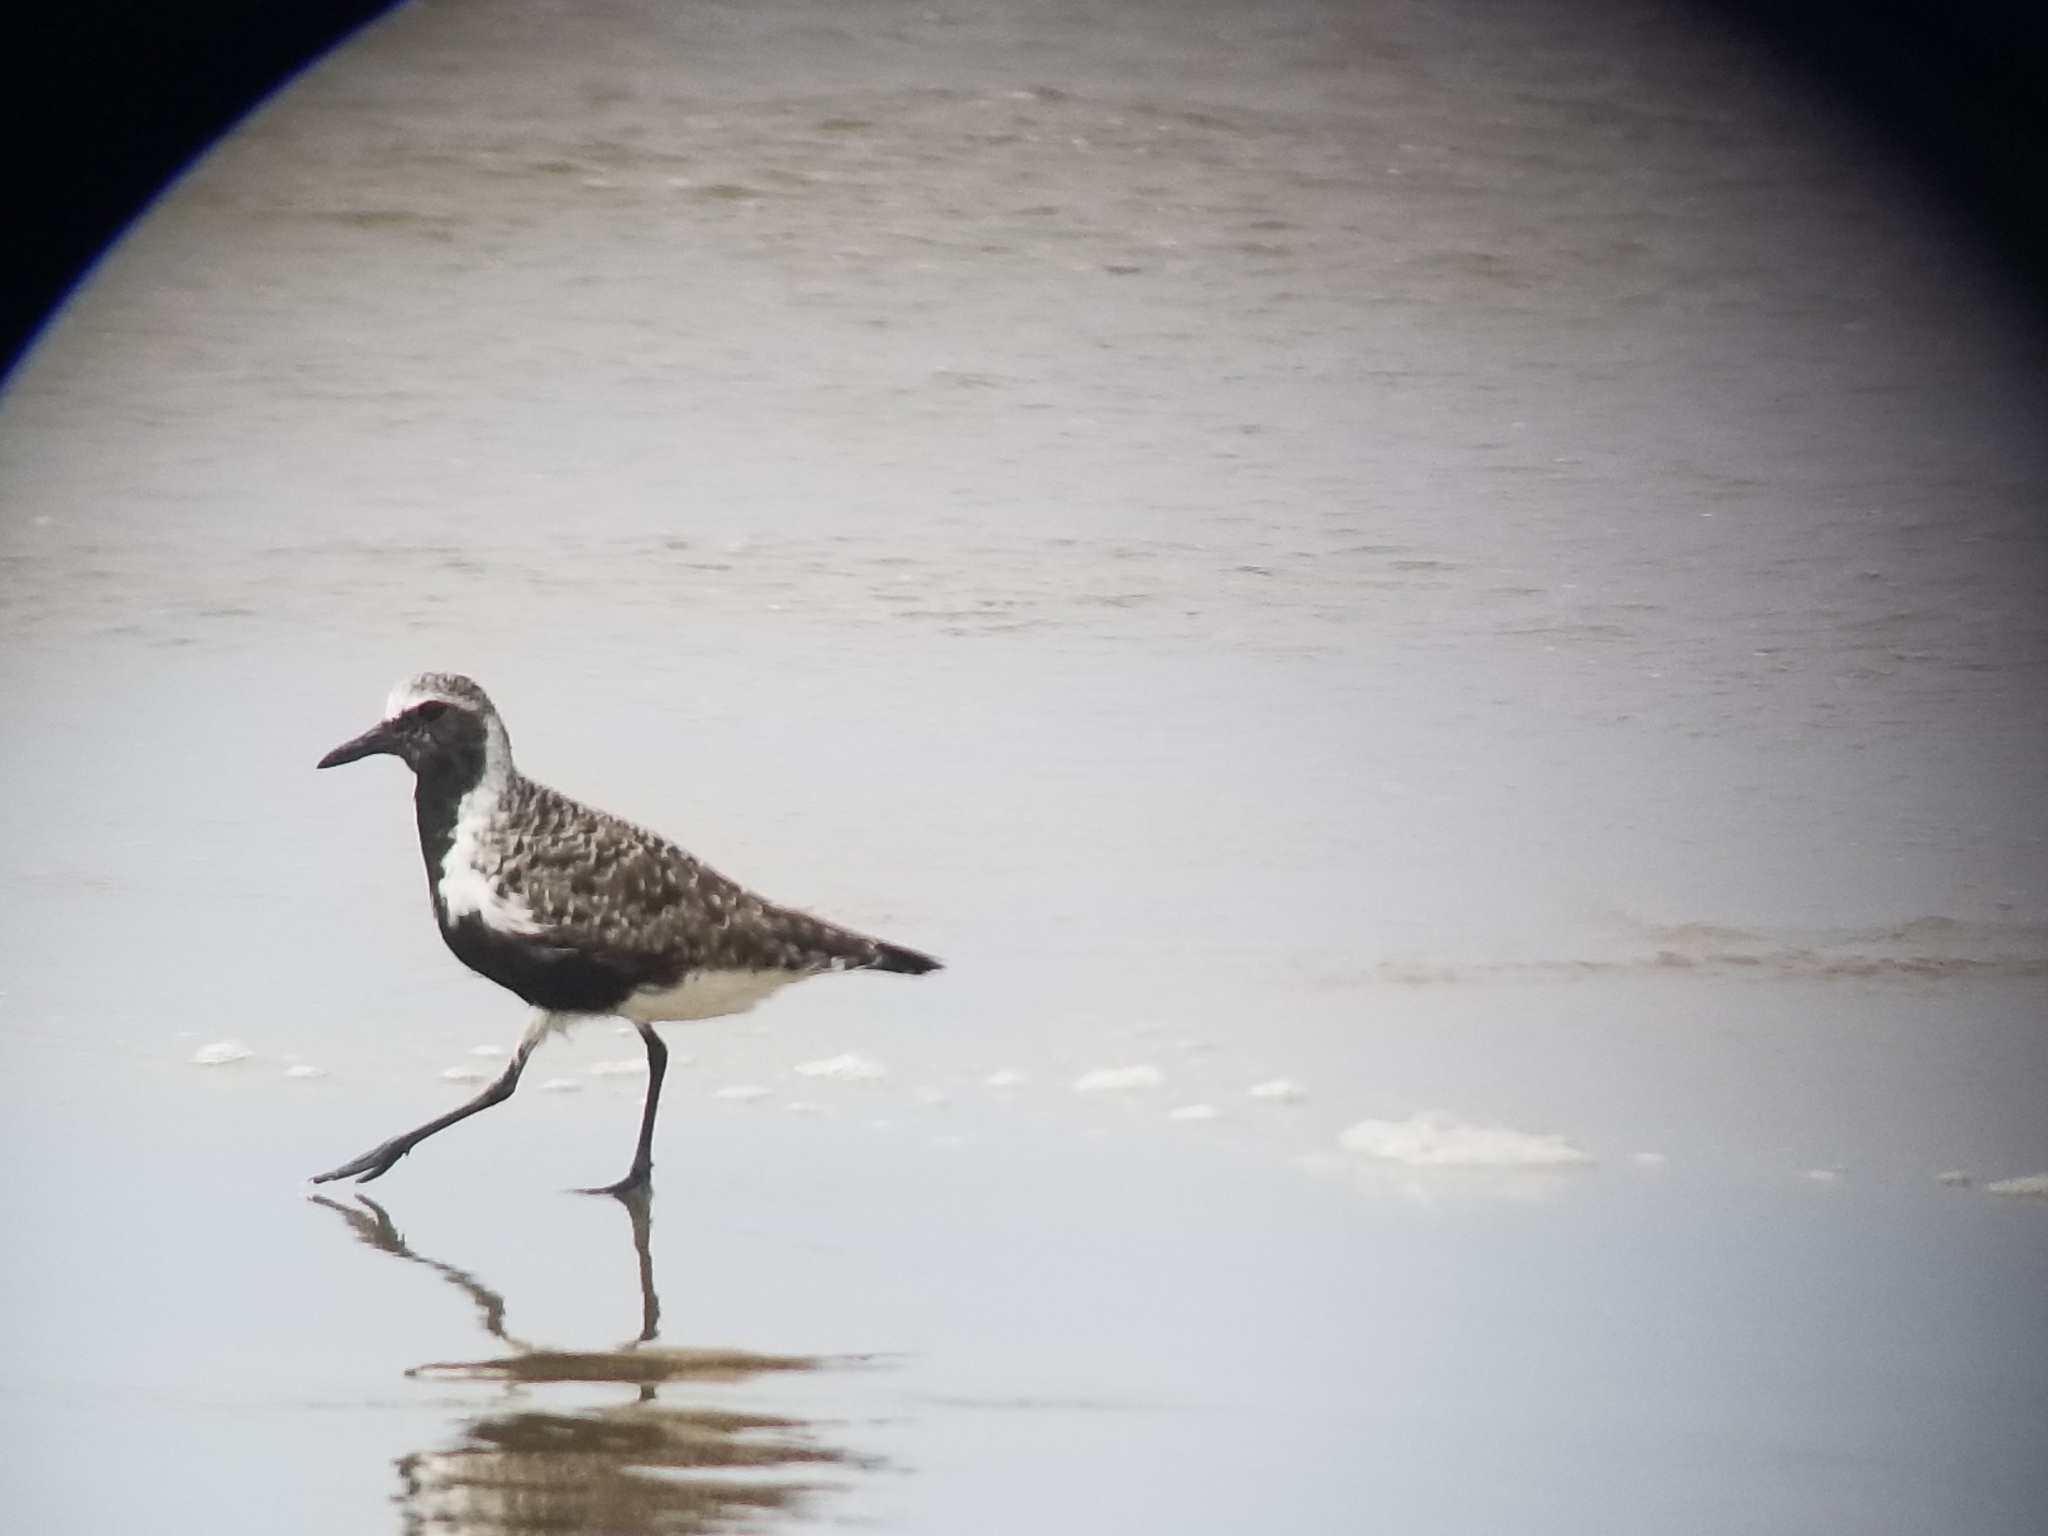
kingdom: Animalia
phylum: Chordata
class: Aves
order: Charadriiformes
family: Charadriidae
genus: Pluvialis
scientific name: Pluvialis squatarola
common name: Grey plover
